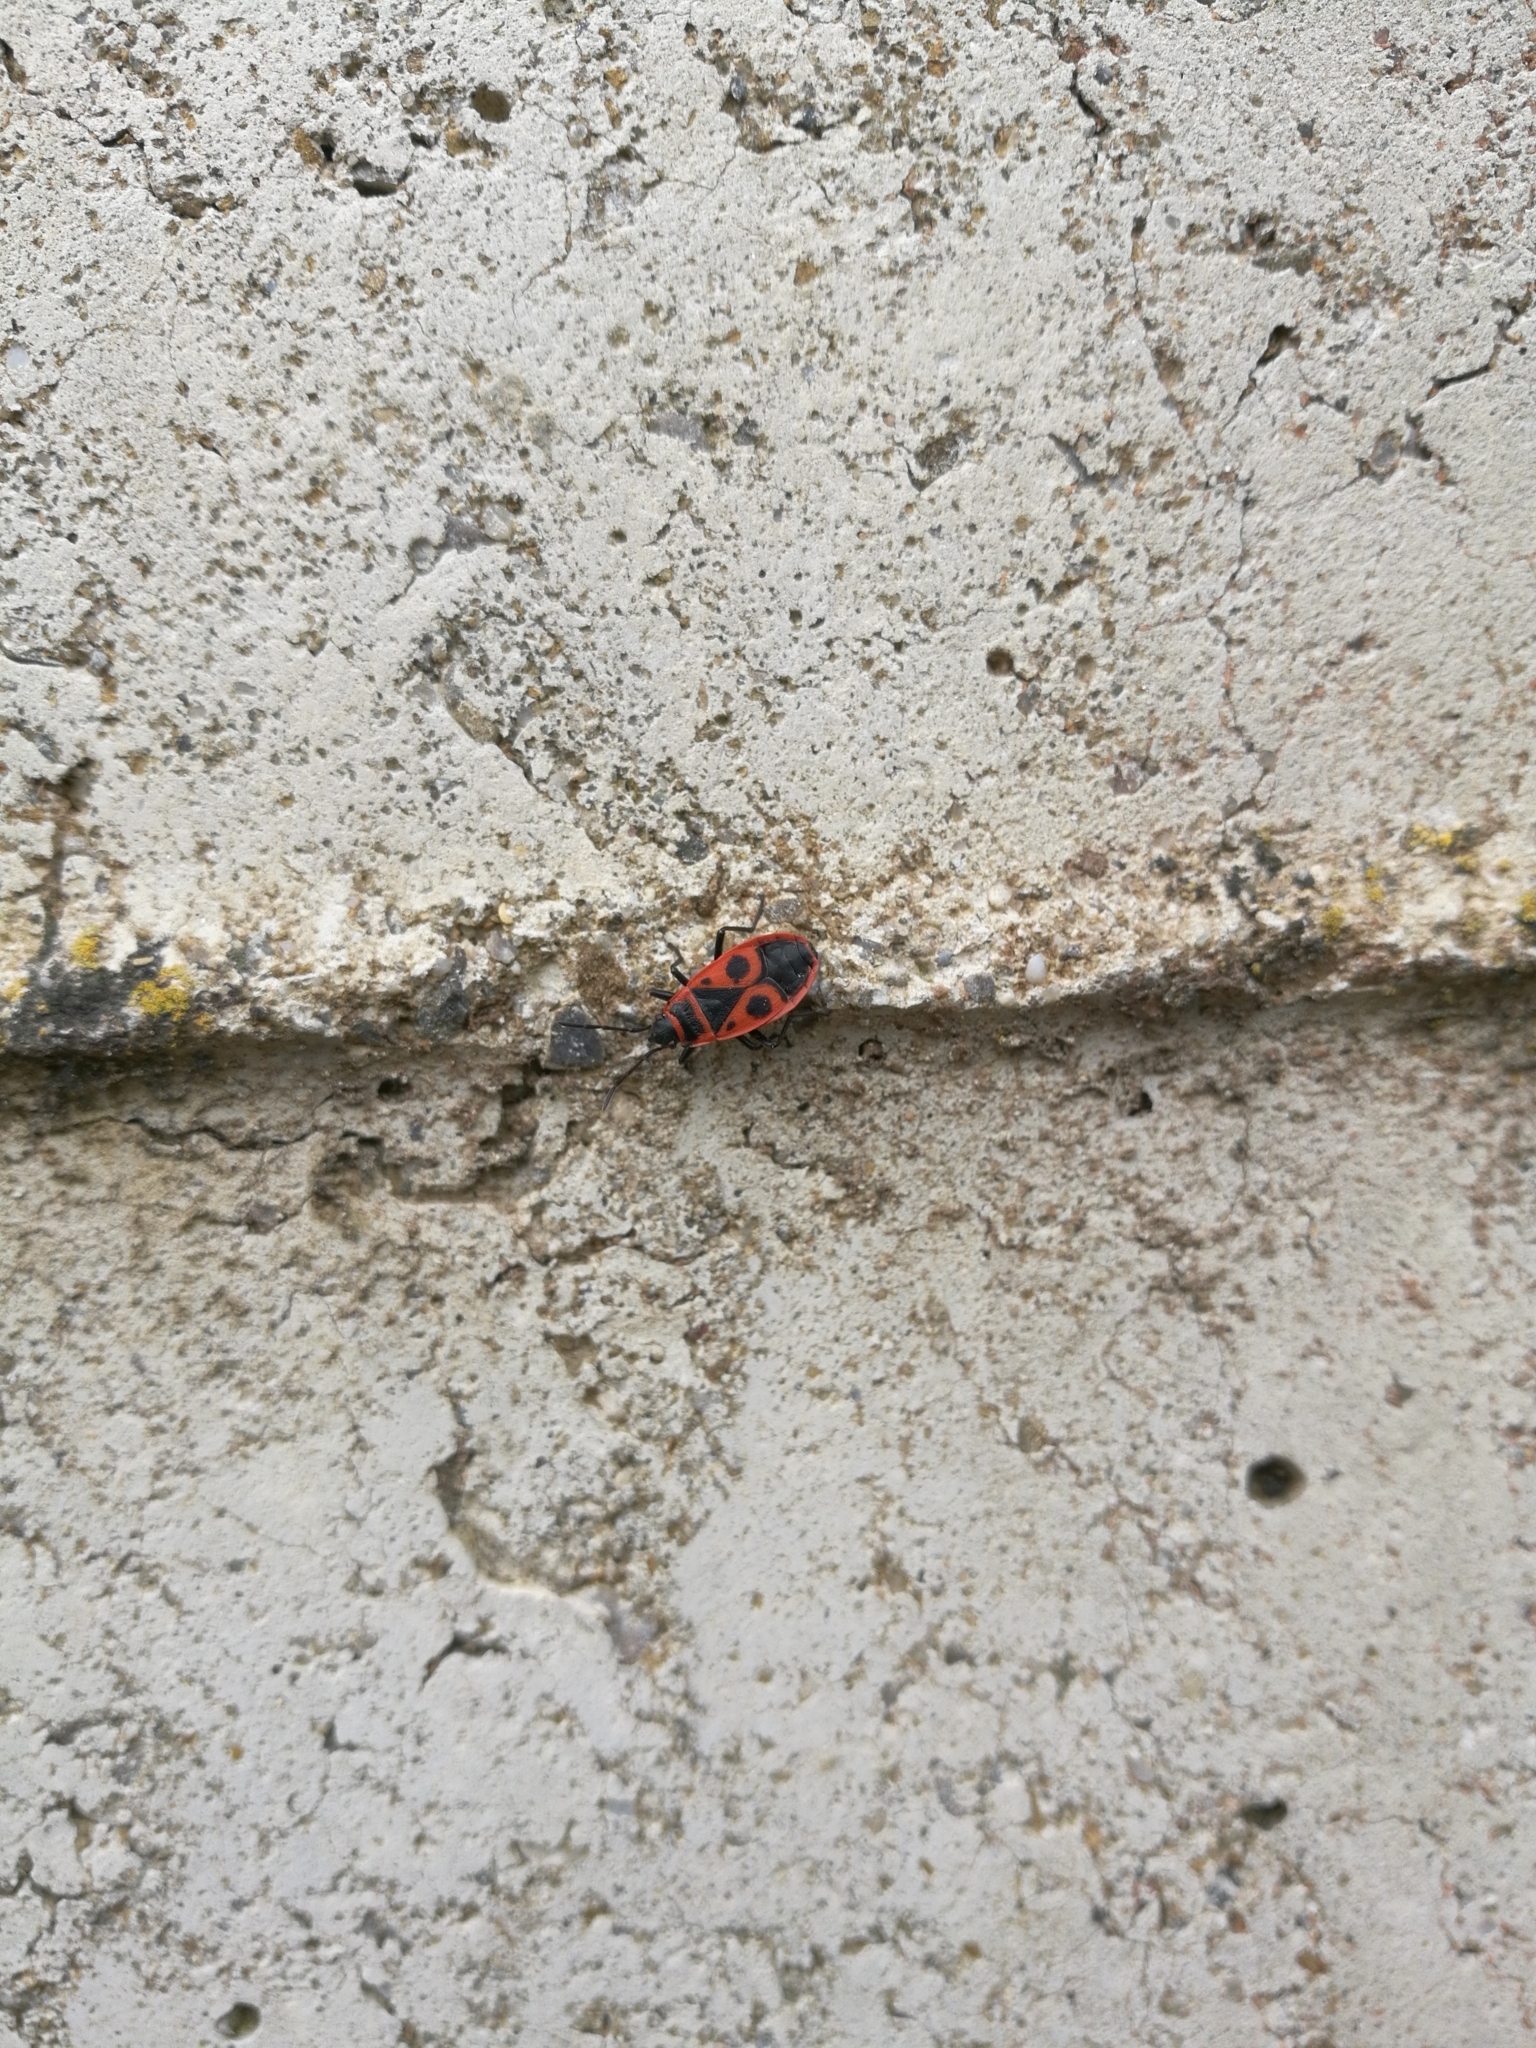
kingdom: Animalia
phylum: Arthropoda
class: Insecta
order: Hemiptera
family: Pyrrhocoridae
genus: Pyrrhocoris
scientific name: Pyrrhocoris apterus
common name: Firebug
